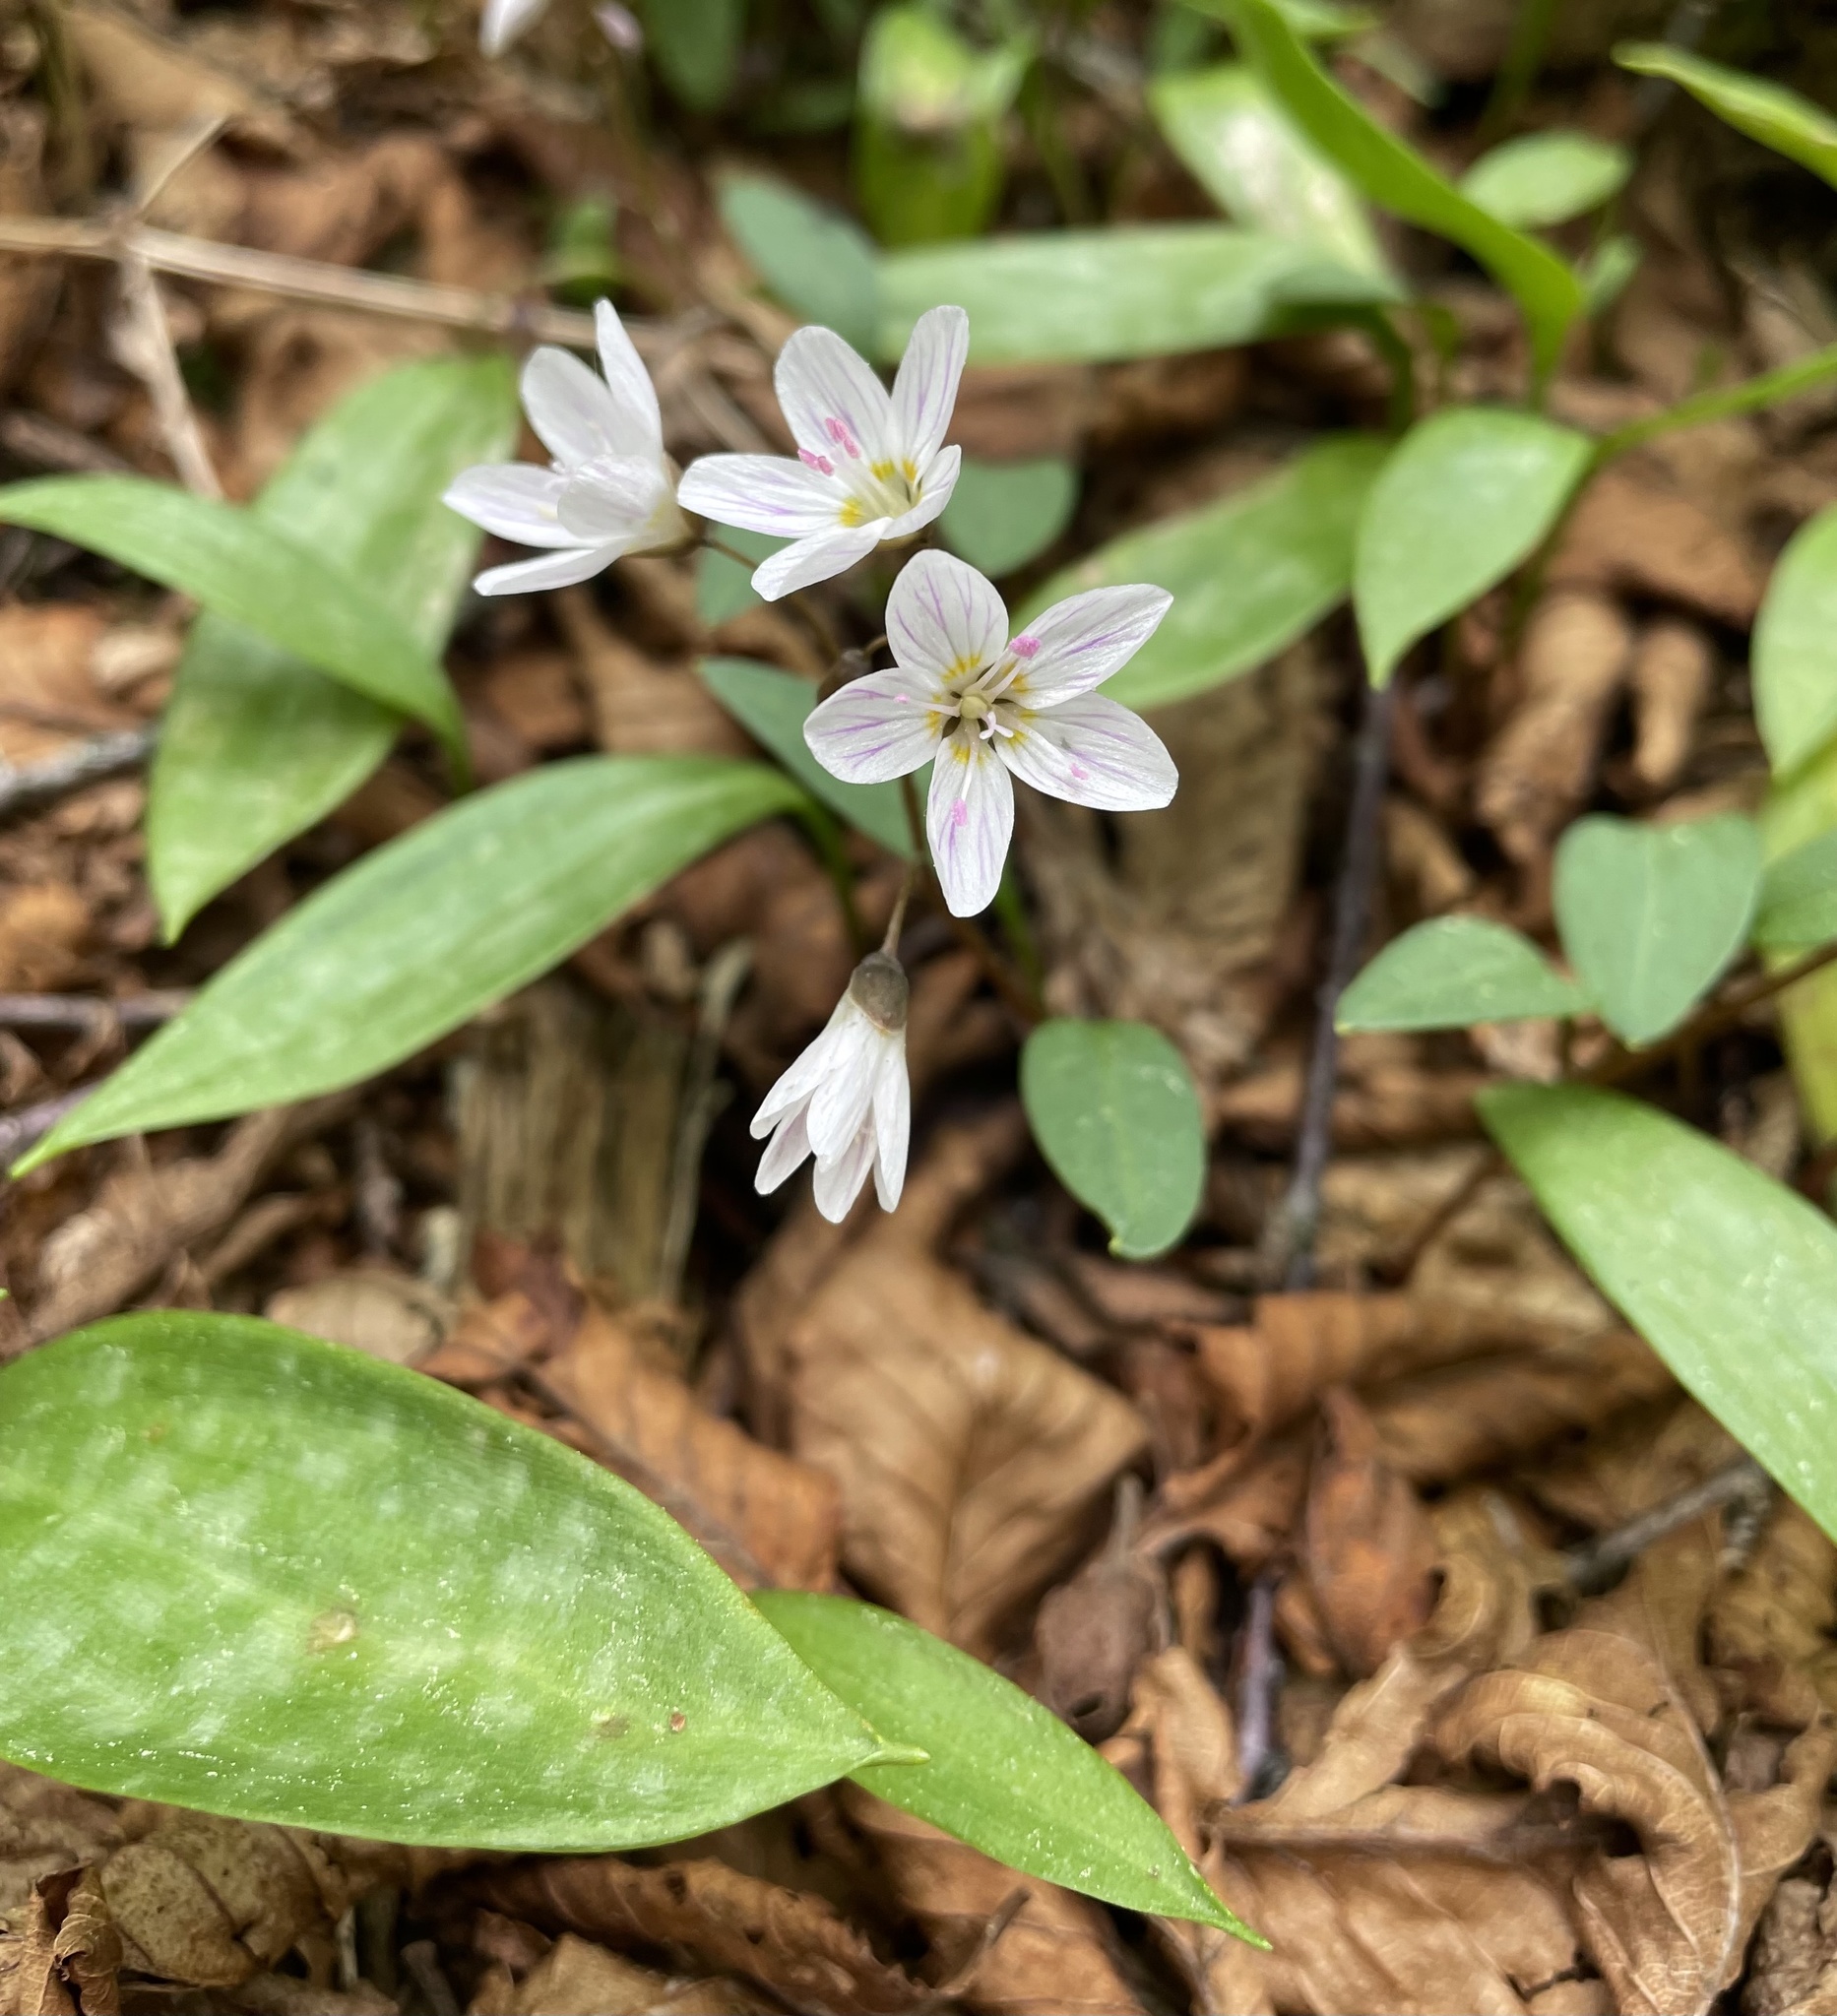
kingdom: Plantae
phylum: Tracheophyta
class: Magnoliopsida
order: Caryophyllales
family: Montiaceae
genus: Claytonia
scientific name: Claytonia caroliniana
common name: Carolina spring beauty
